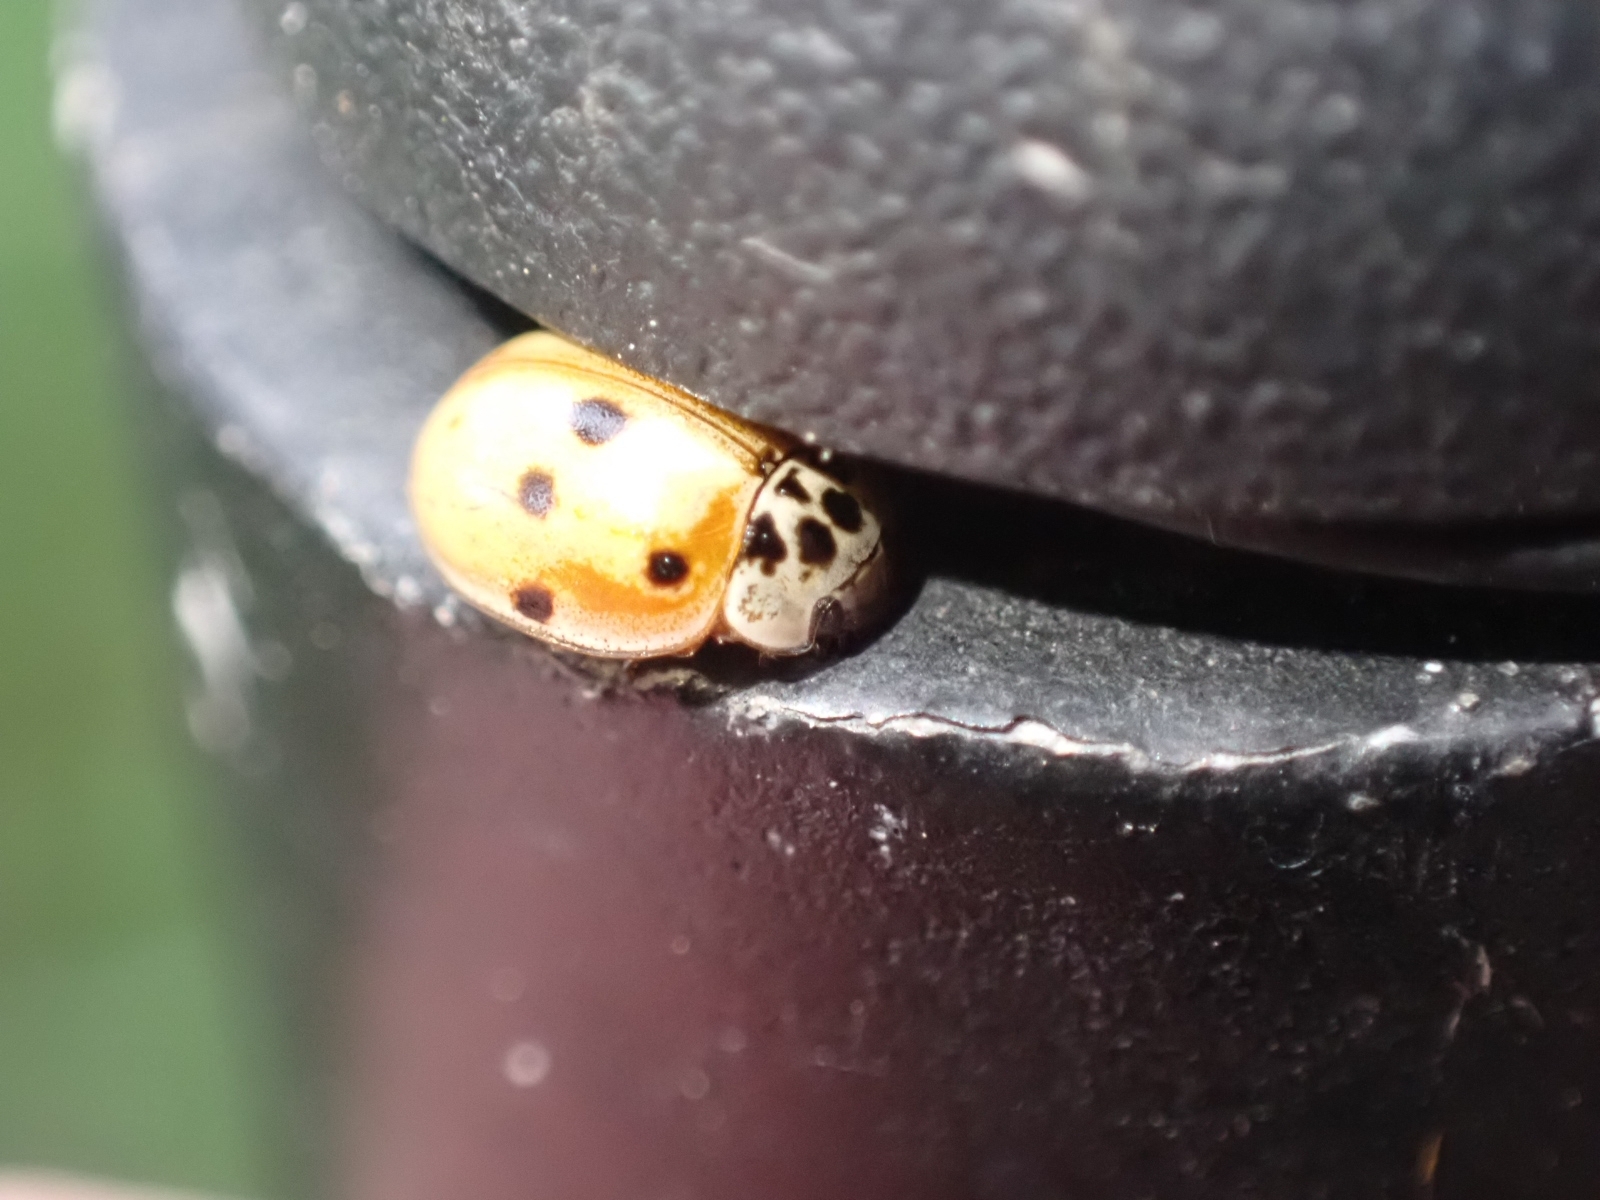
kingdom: Animalia
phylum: Arthropoda
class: Insecta
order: Coleoptera
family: Coccinellidae
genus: Adalia
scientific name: Adalia decempunctata
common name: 10-spot ladybird
